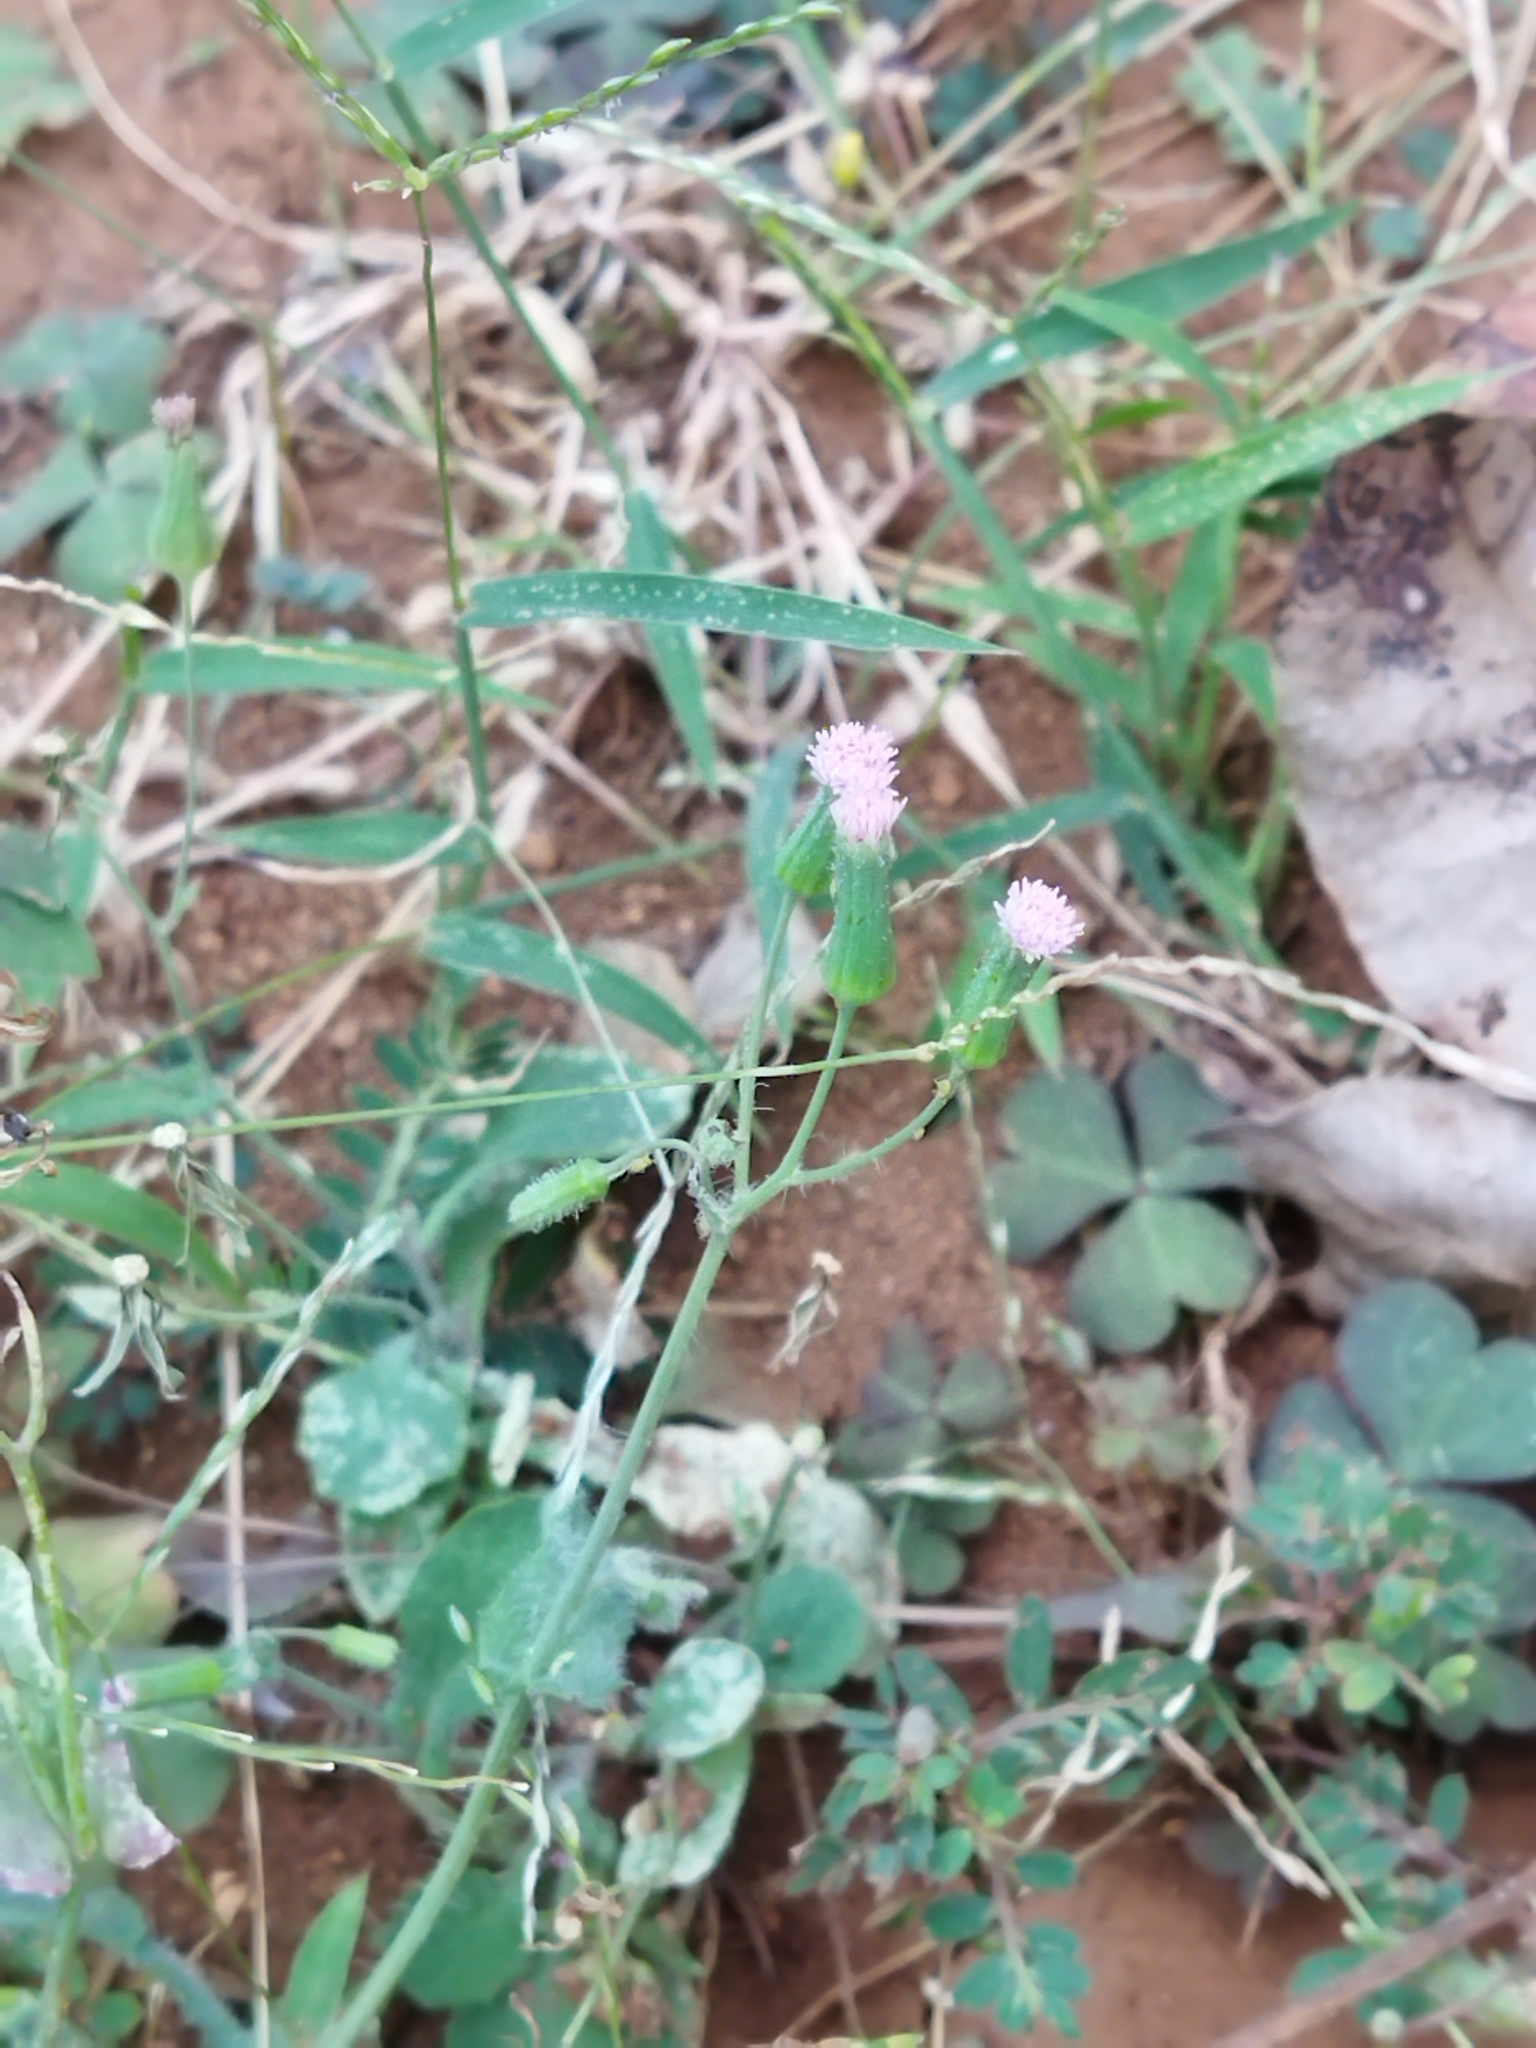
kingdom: Plantae
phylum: Tracheophyta
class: Magnoliopsida
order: Asterales
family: Asteraceae
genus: Emilia
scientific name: Emilia sonchifolia
